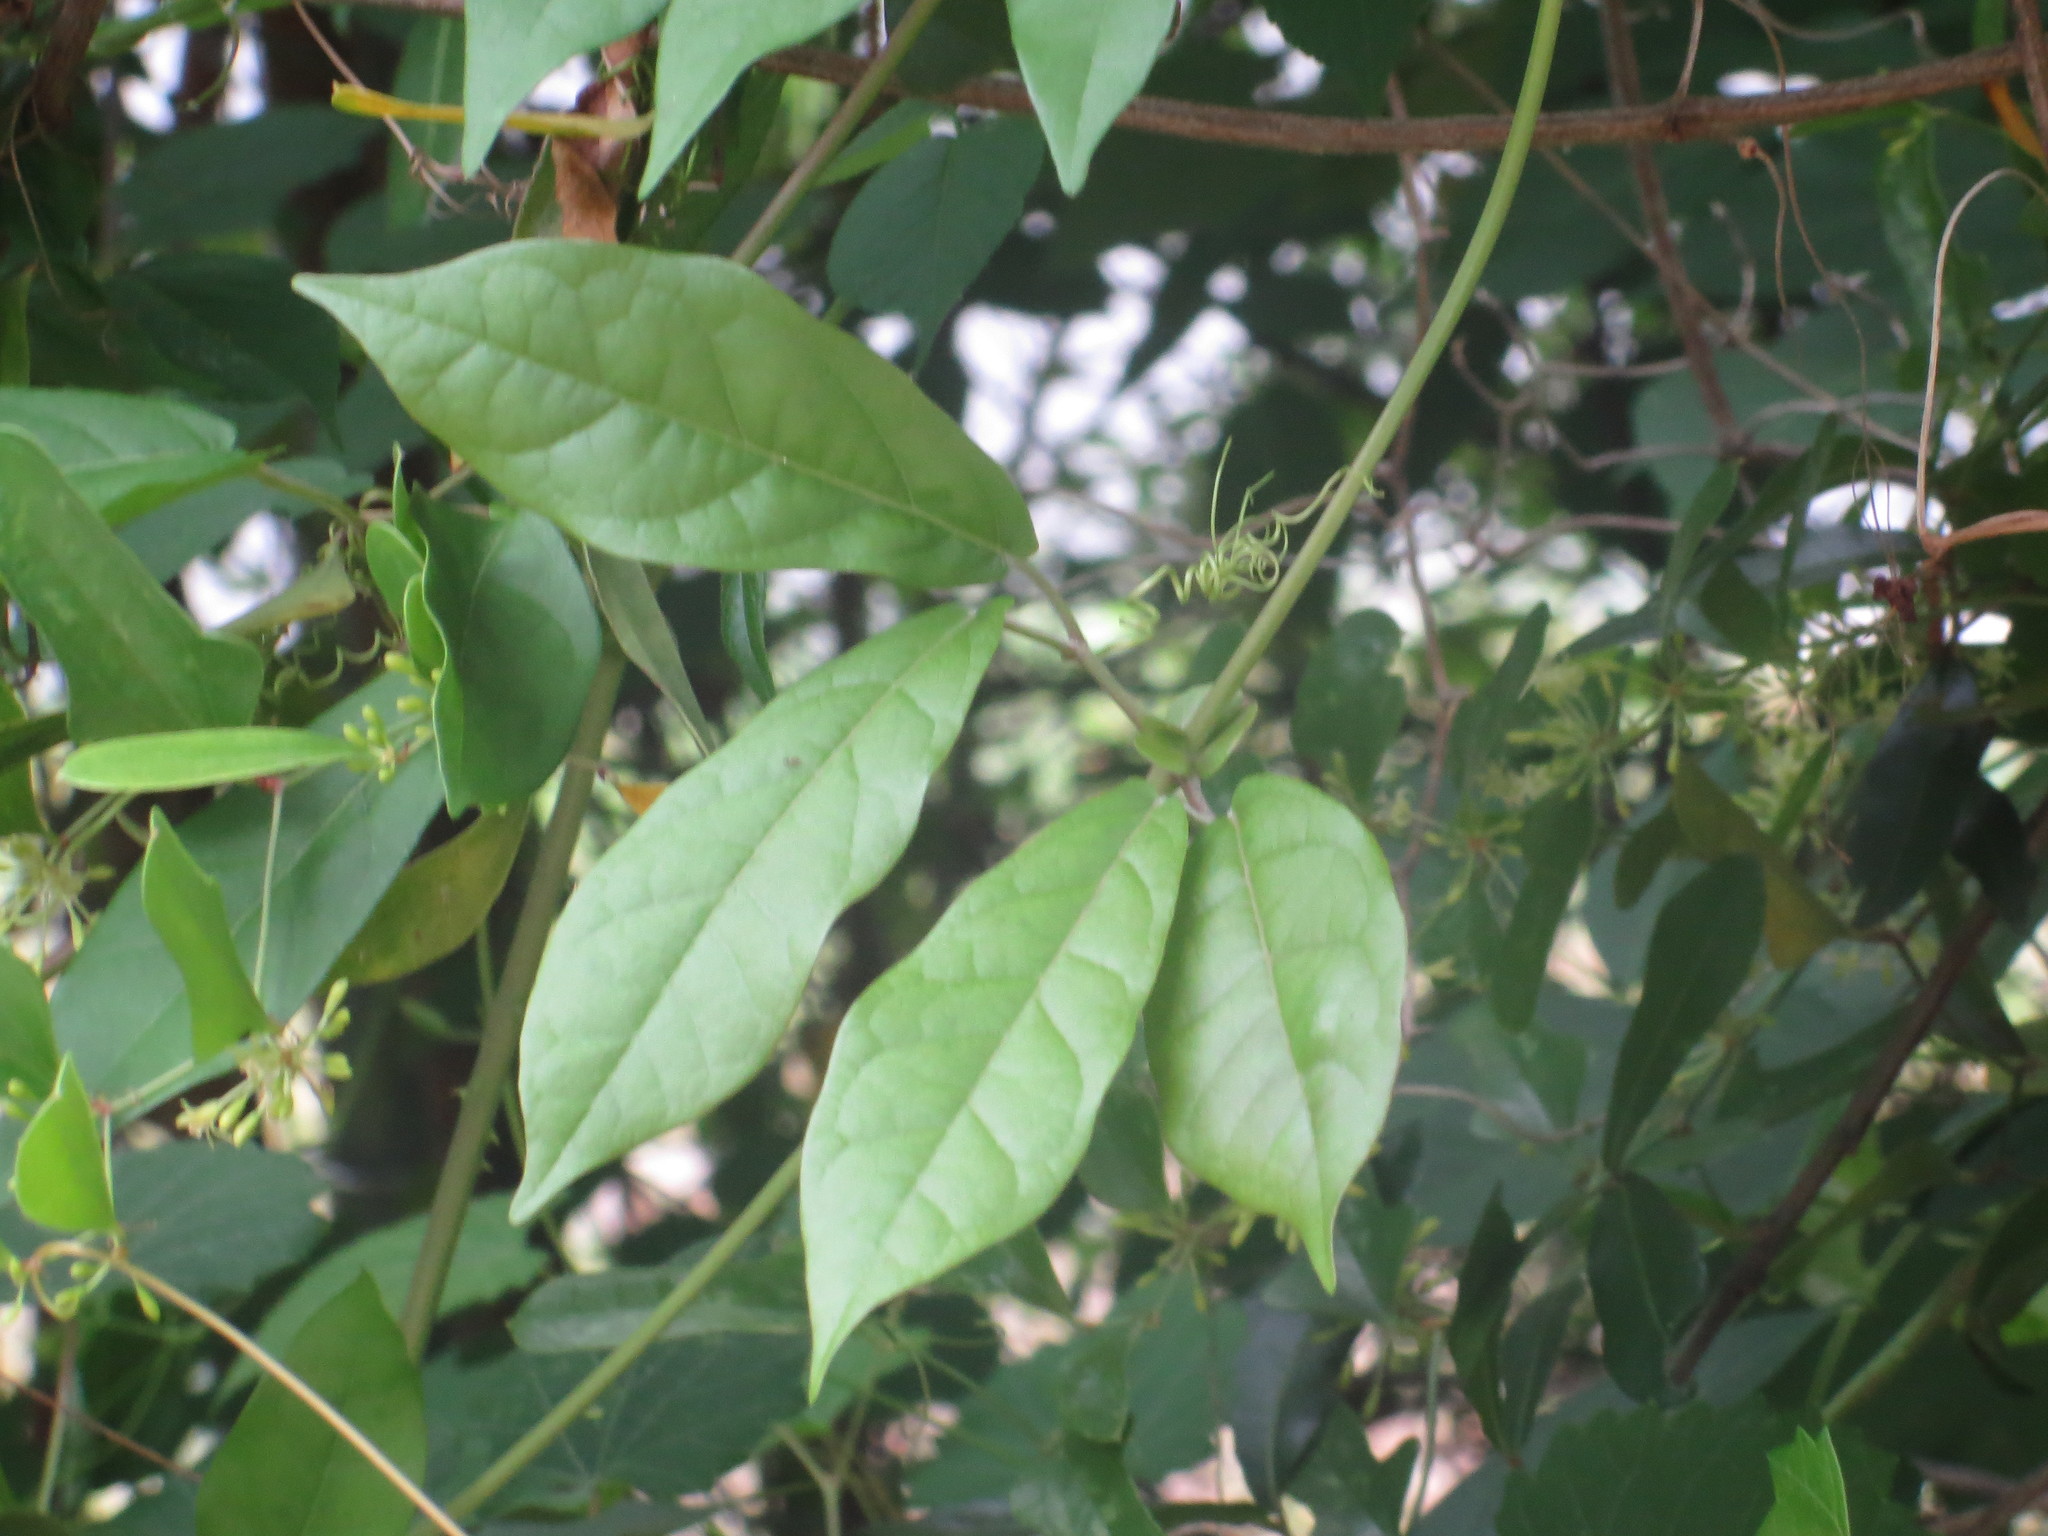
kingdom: Plantae
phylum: Tracheophyta
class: Magnoliopsida
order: Lamiales
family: Bignoniaceae
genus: Bignonia
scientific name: Bignonia capreolata
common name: Crossvine
